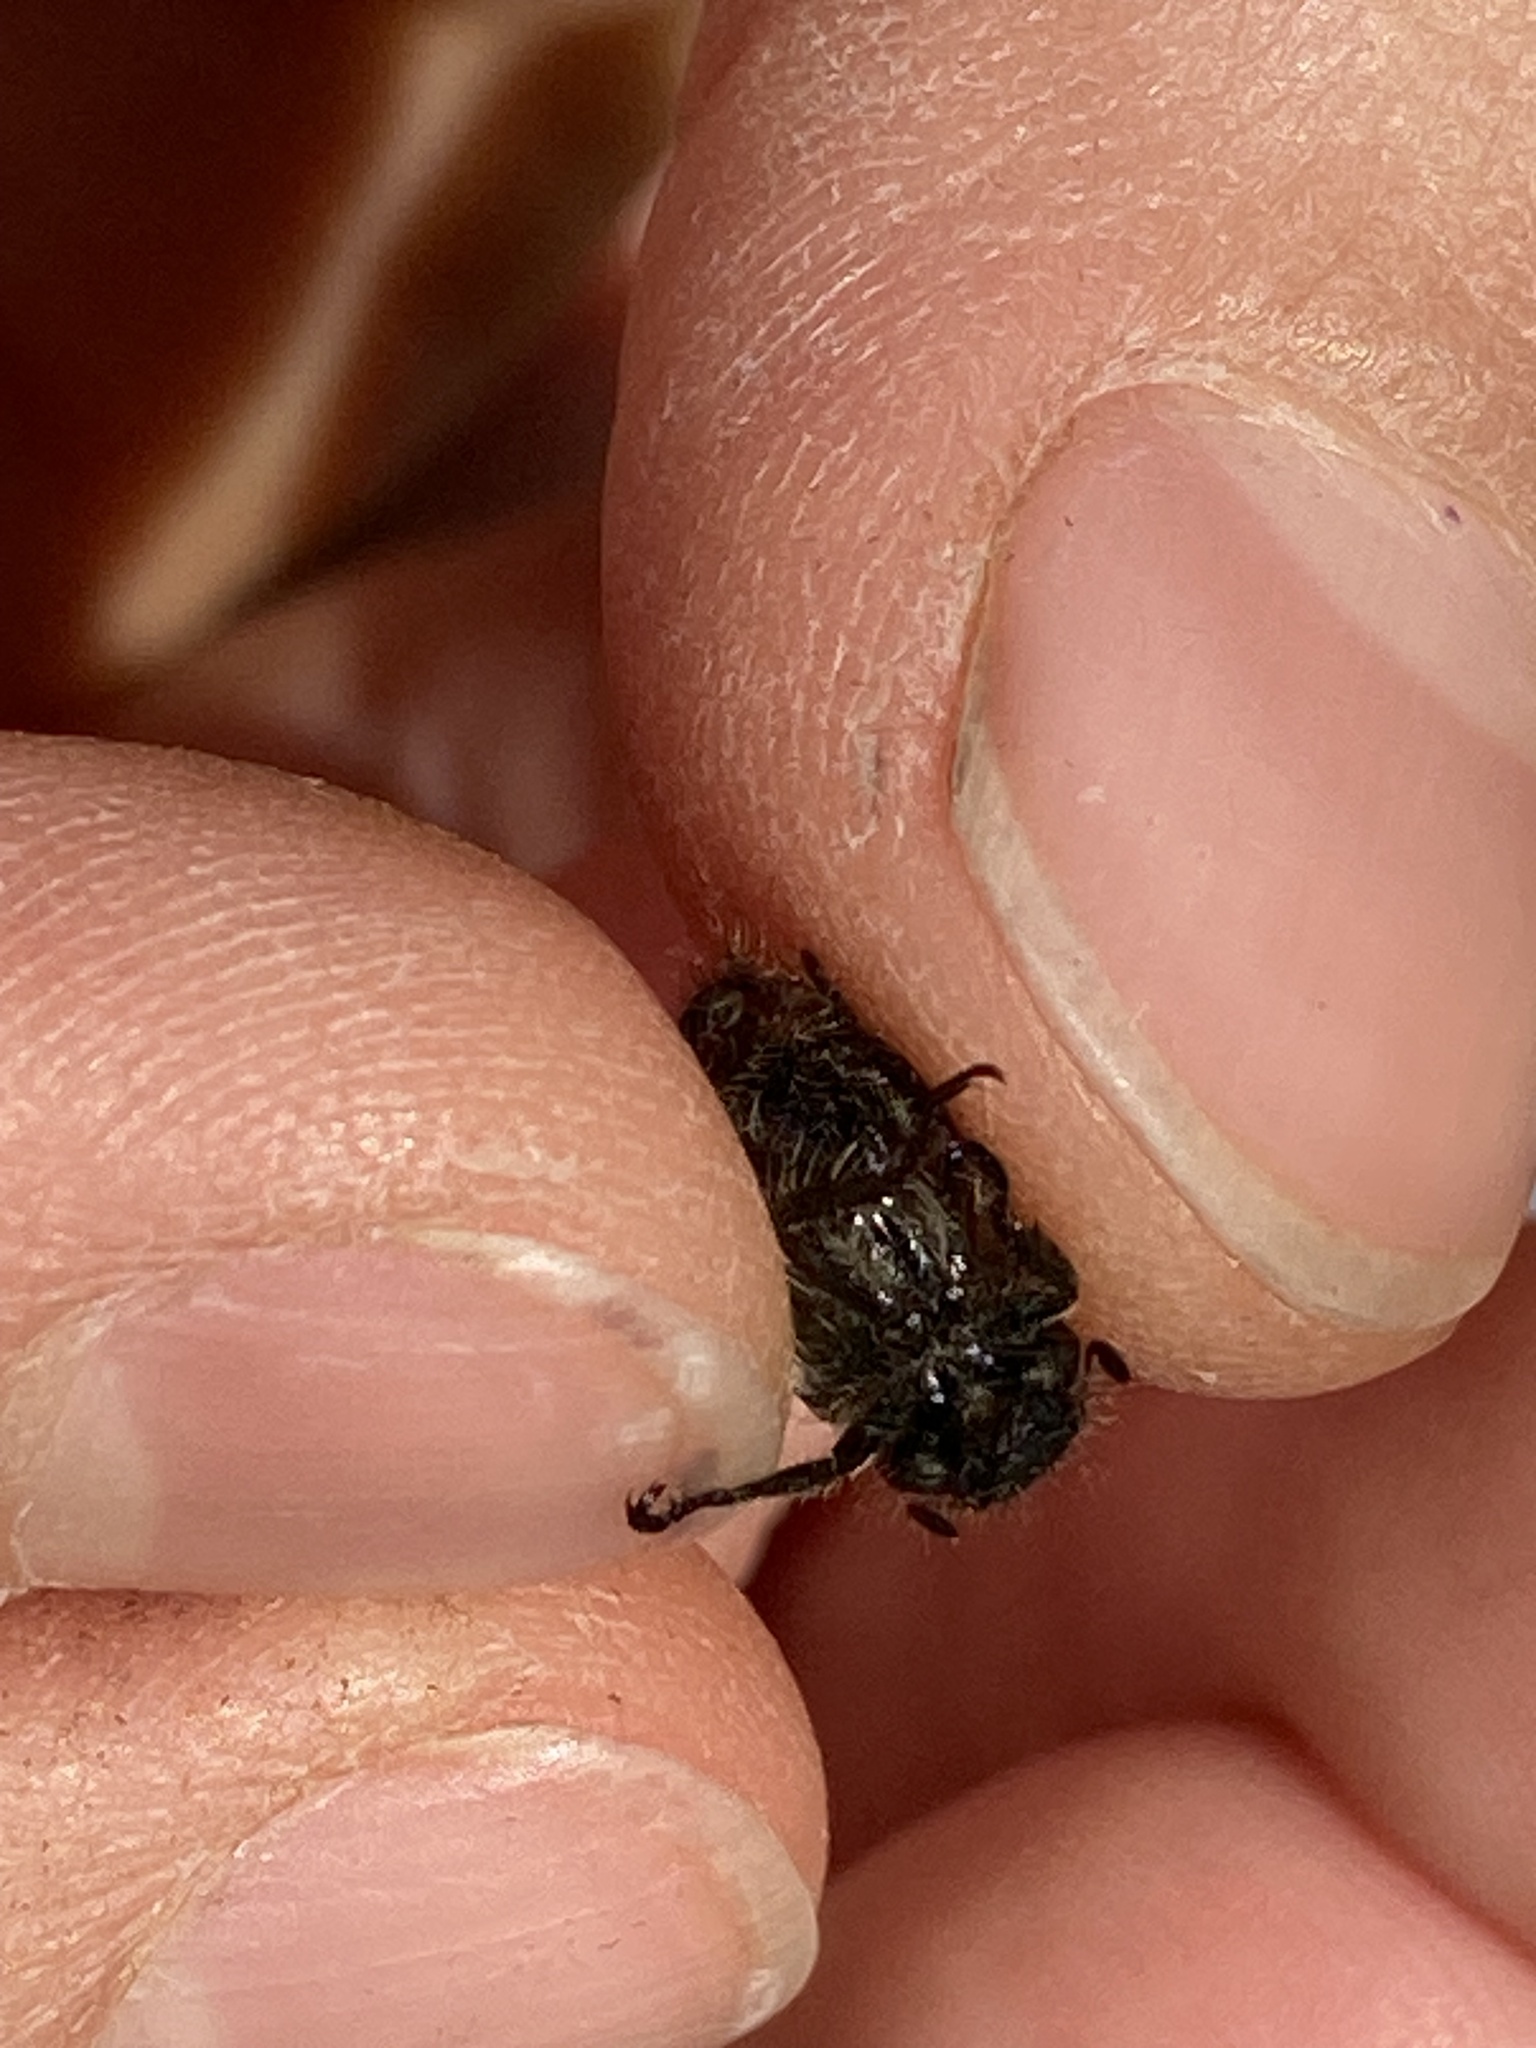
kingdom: Animalia
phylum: Arthropoda
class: Insecta
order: Coleoptera
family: Scarabaeidae
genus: Phyllopertha
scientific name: Phyllopertha horticola
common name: Garden chafer
